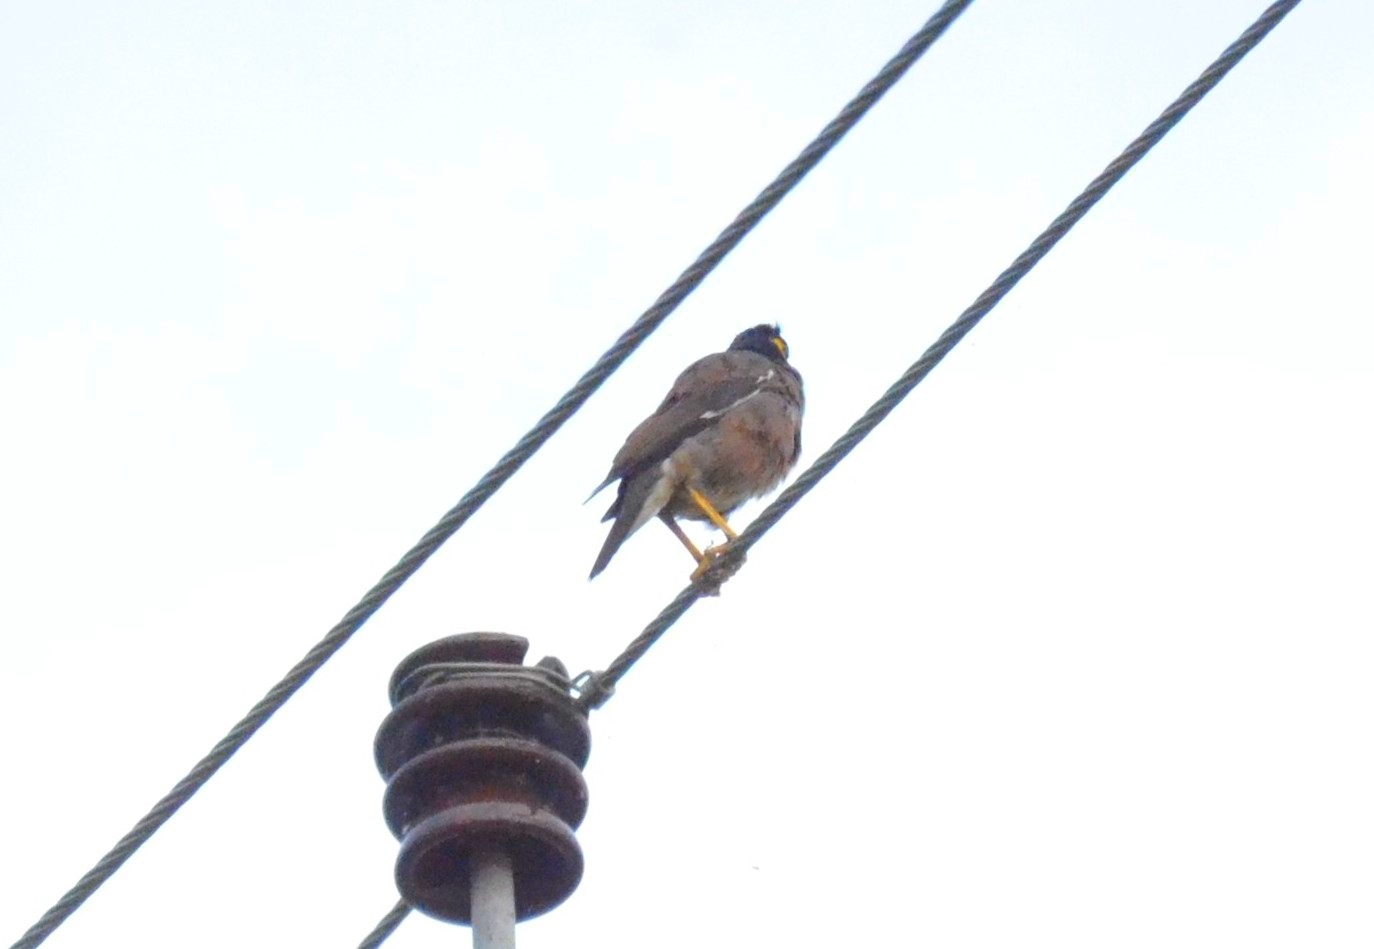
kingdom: Animalia
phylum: Chordata
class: Aves
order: Passeriformes
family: Sturnidae
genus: Acridotheres
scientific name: Acridotheres tristis
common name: Common myna
